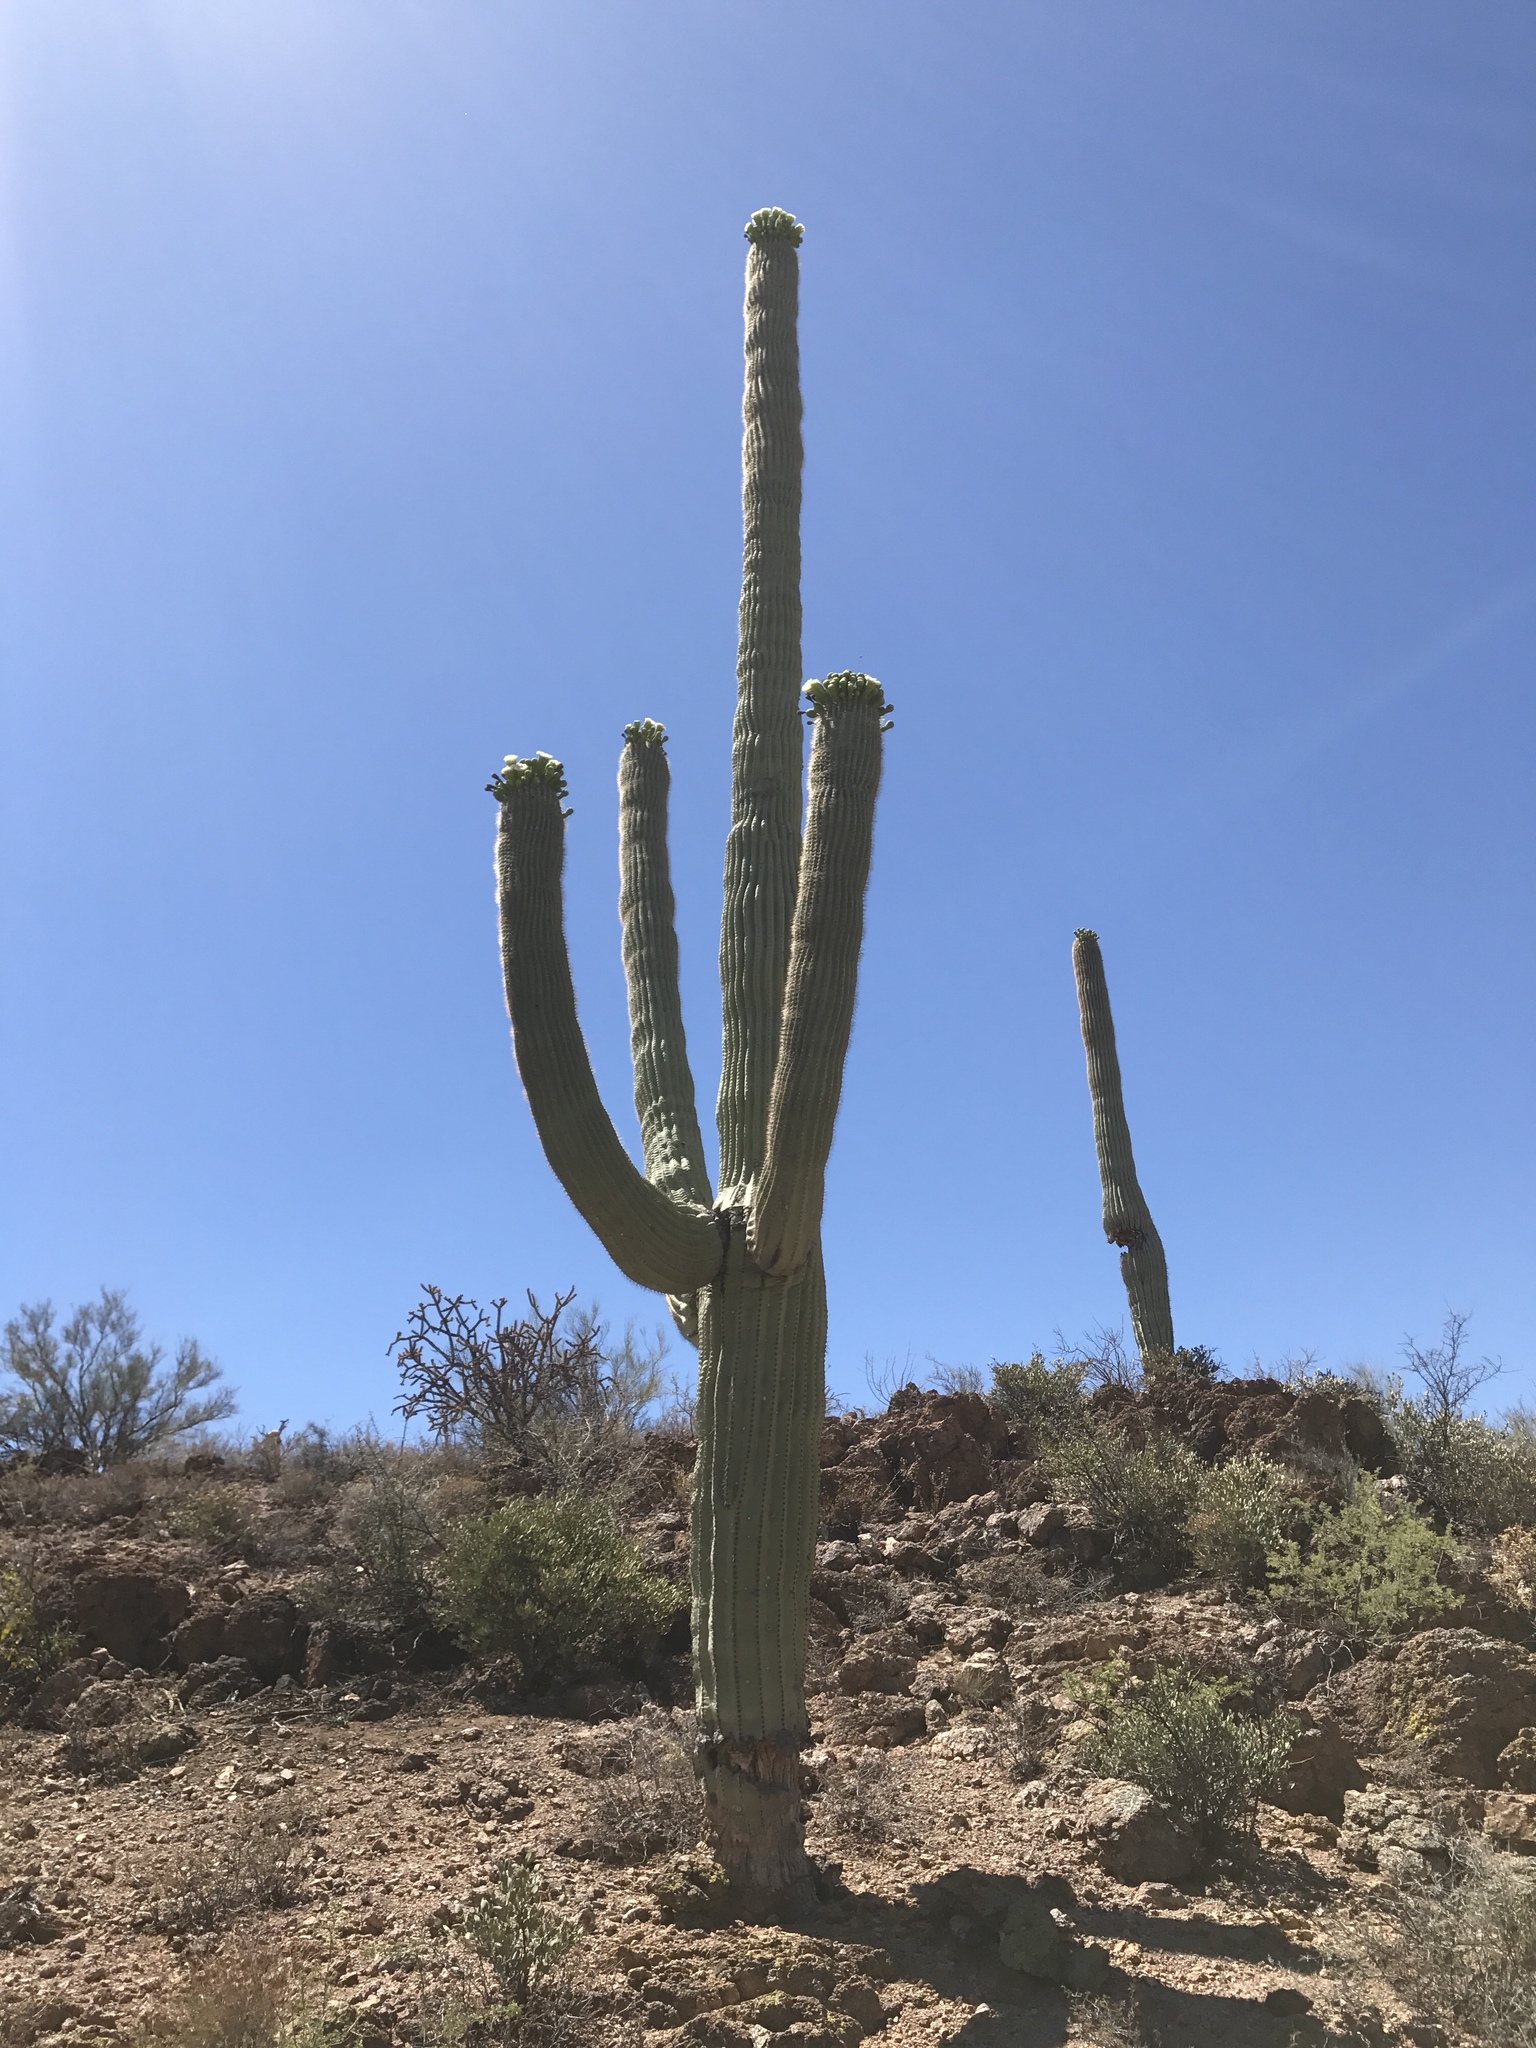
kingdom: Plantae
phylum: Tracheophyta
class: Magnoliopsida
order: Caryophyllales
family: Cactaceae
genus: Carnegiea
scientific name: Carnegiea gigantea
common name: Saguaro
